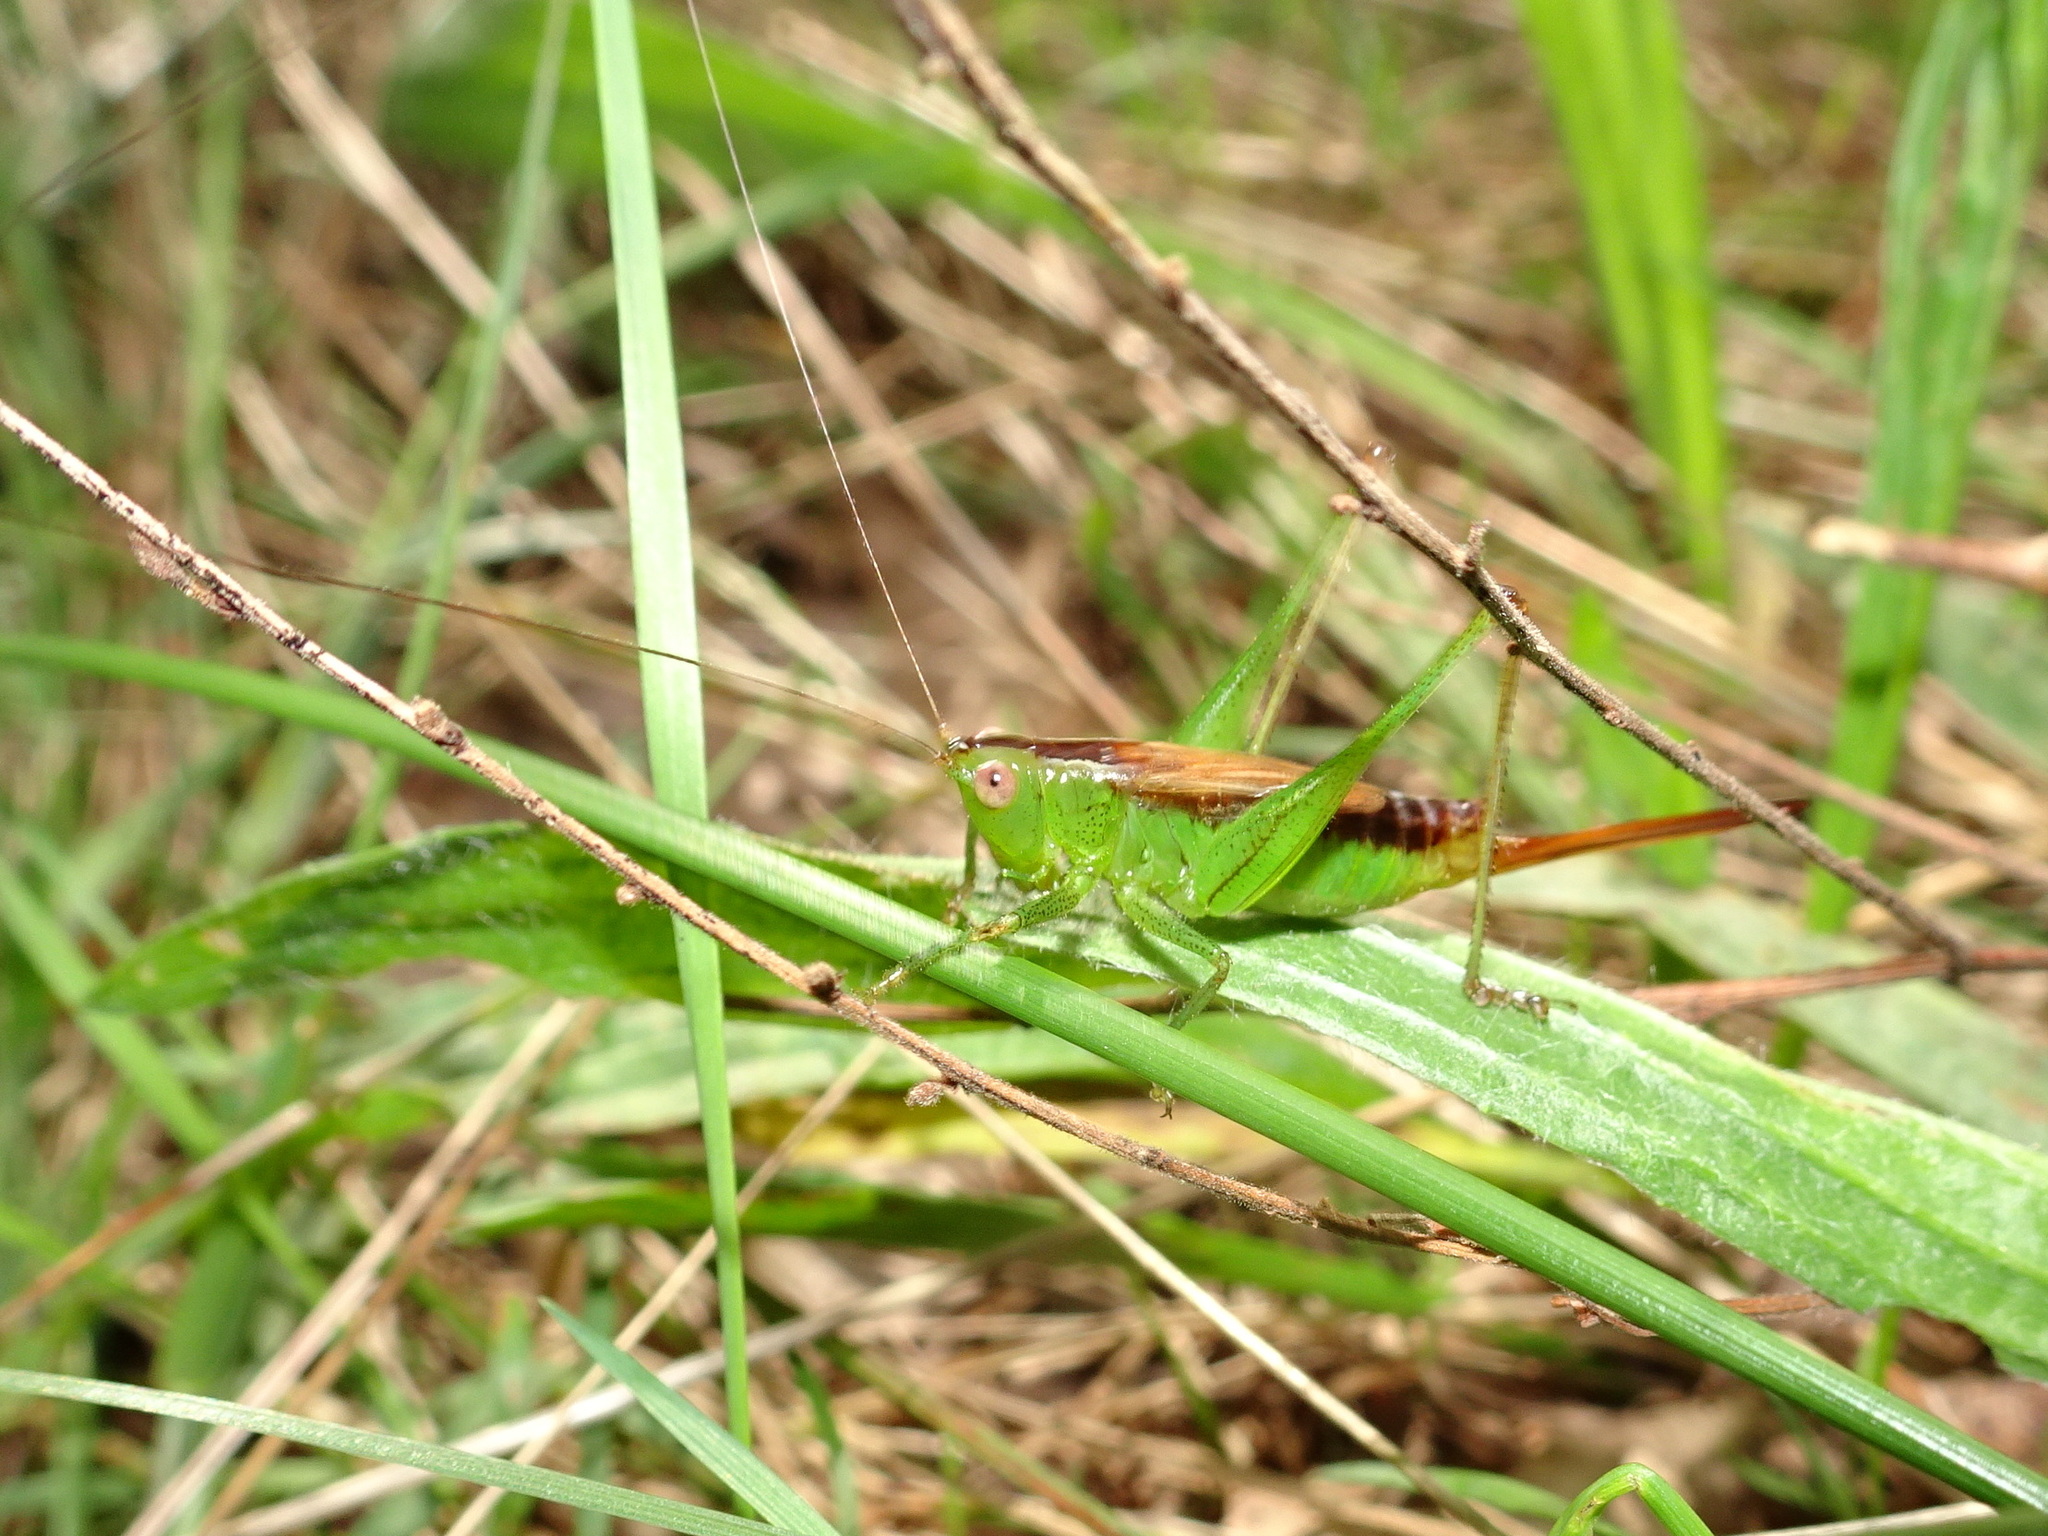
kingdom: Animalia
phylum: Arthropoda
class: Insecta
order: Orthoptera
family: Tettigoniidae
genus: Conocephalus
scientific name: Conocephalus brevipennis
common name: Short-winged meadow katydid
